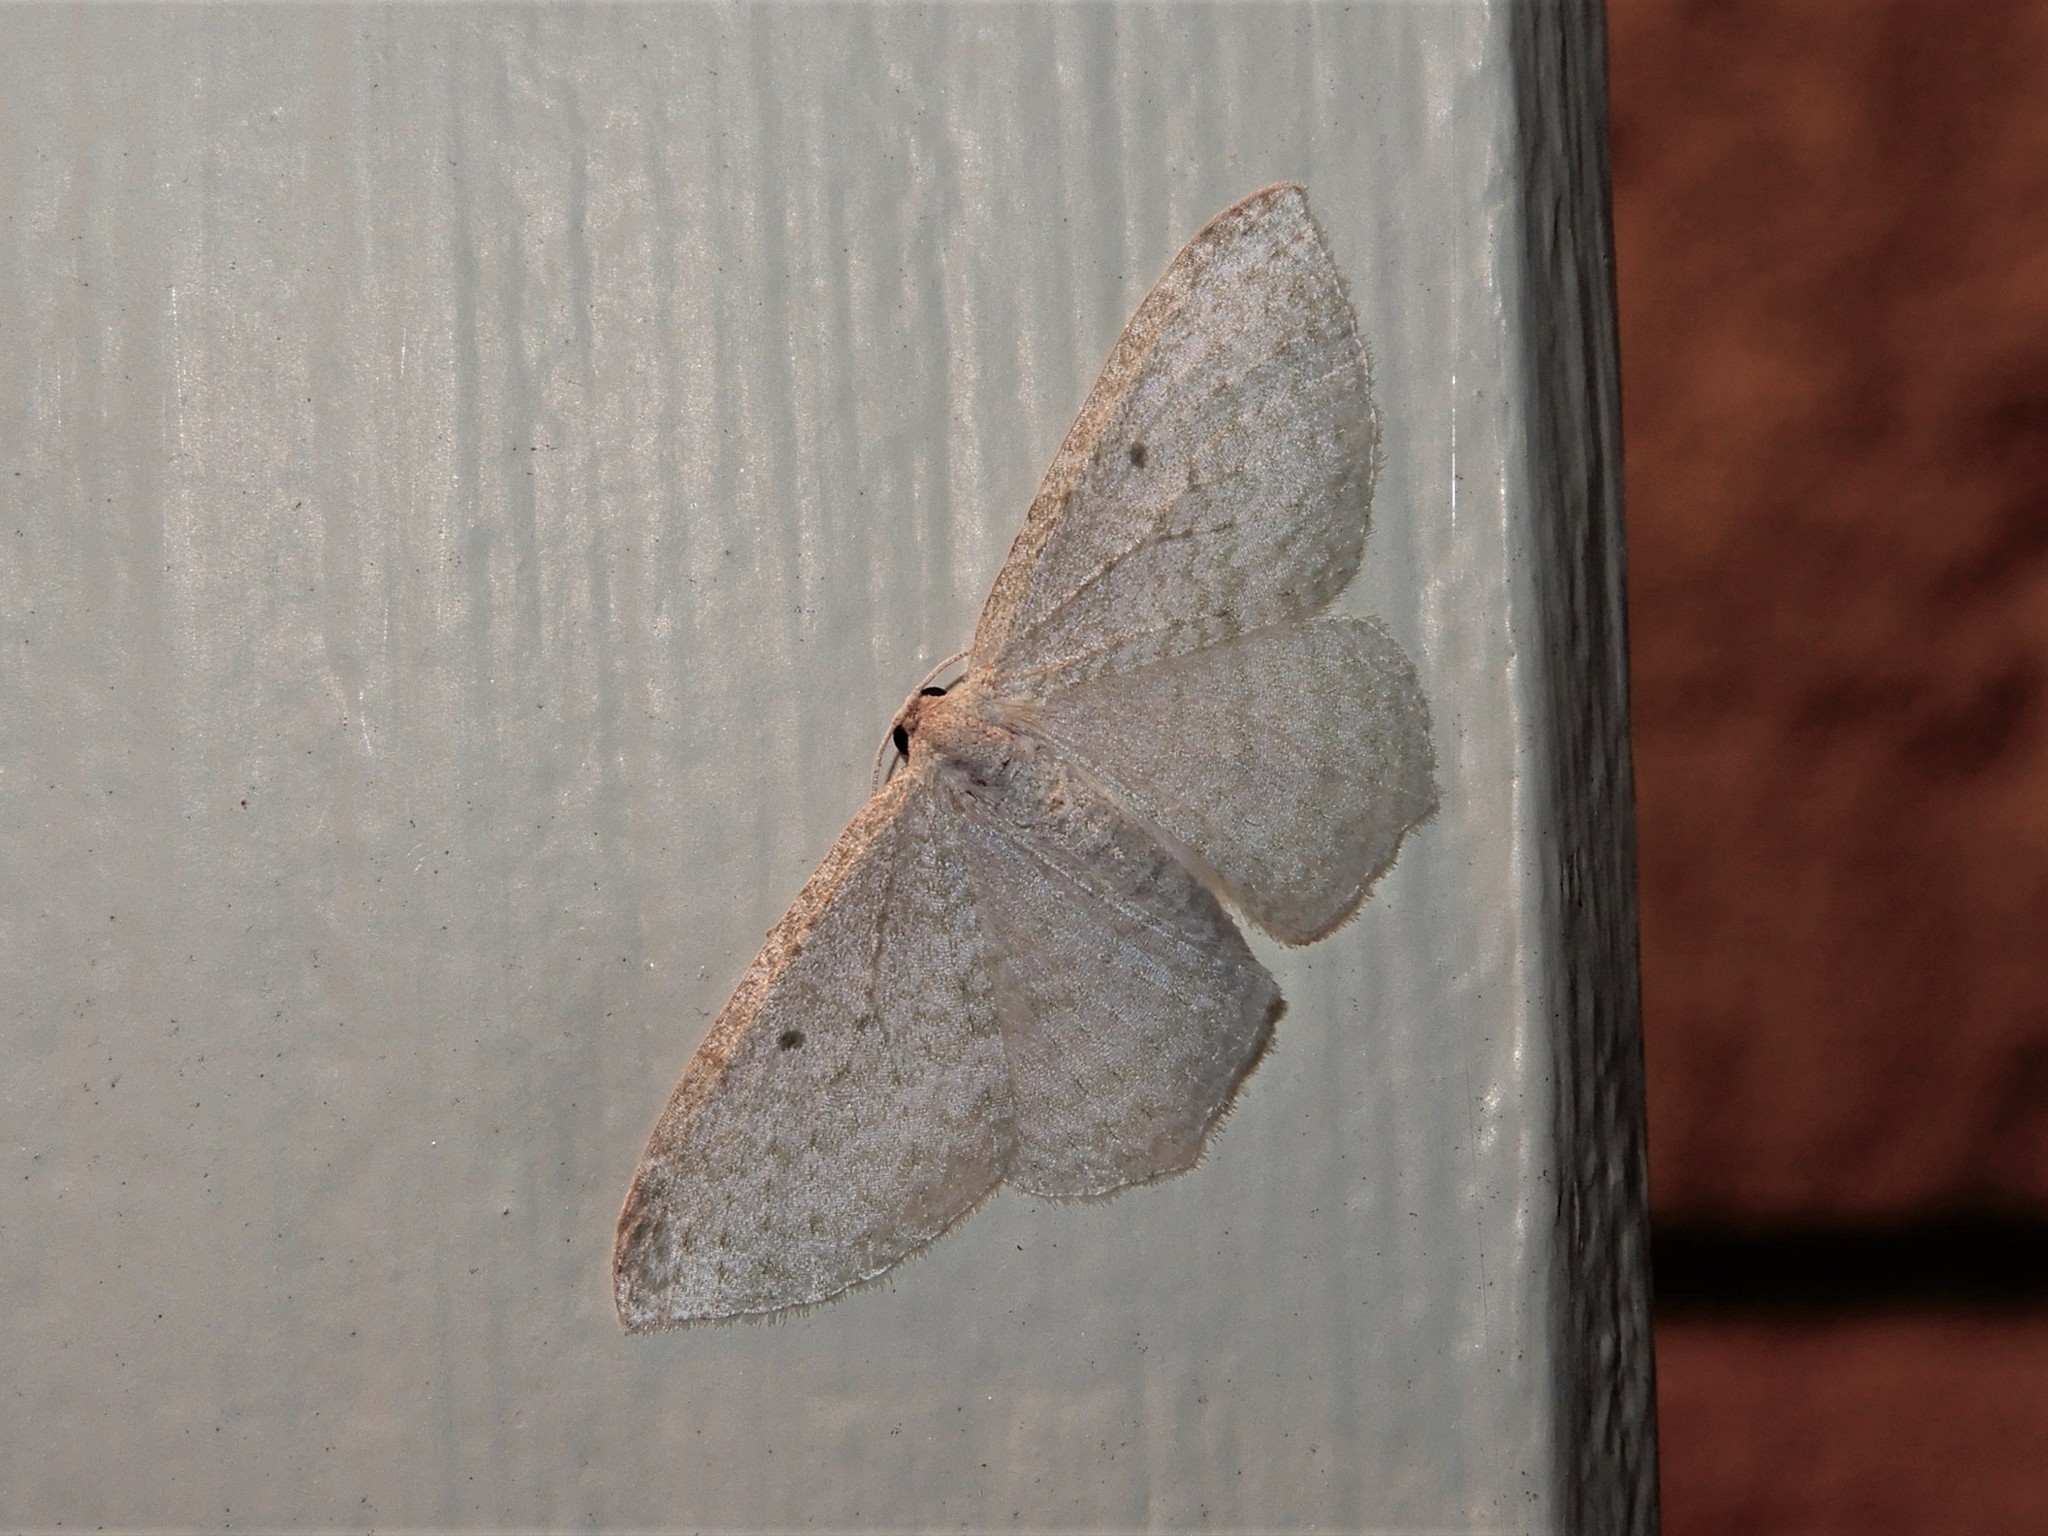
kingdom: Animalia
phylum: Arthropoda
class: Insecta
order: Lepidoptera
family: Geometridae
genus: Poecilasthena
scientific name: Poecilasthena pulchraria
